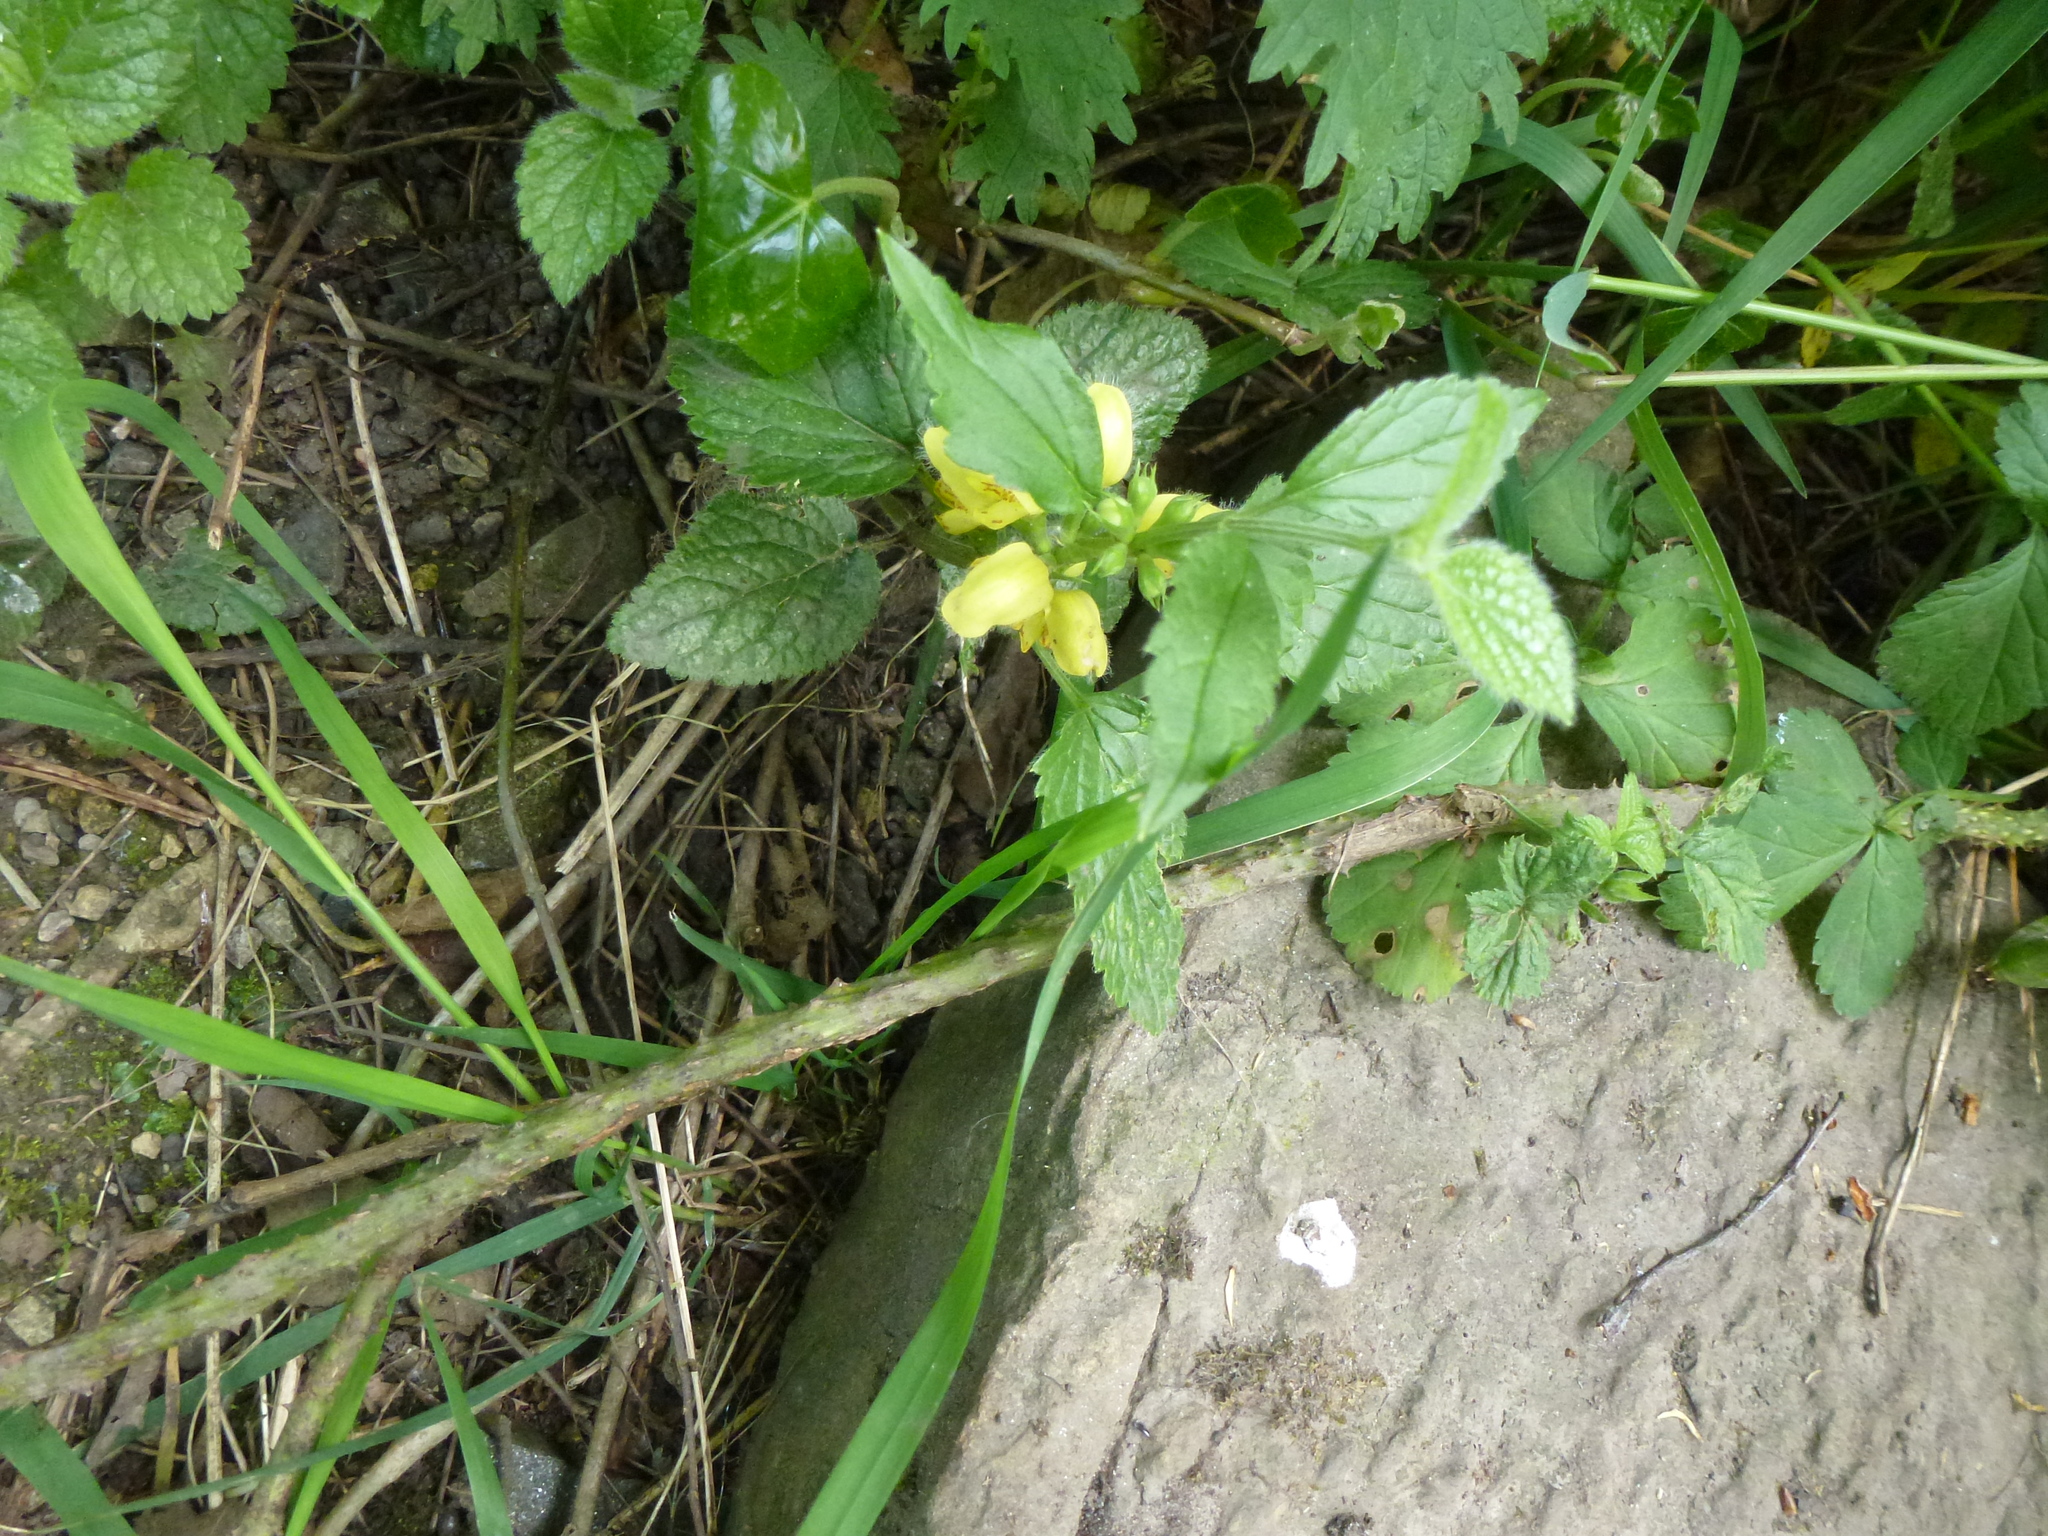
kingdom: Plantae
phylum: Tracheophyta
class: Magnoliopsida
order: Lamiales
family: Lamiaceae
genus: Lamium
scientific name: Lamium galeobdolon
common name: Yellow archangel
